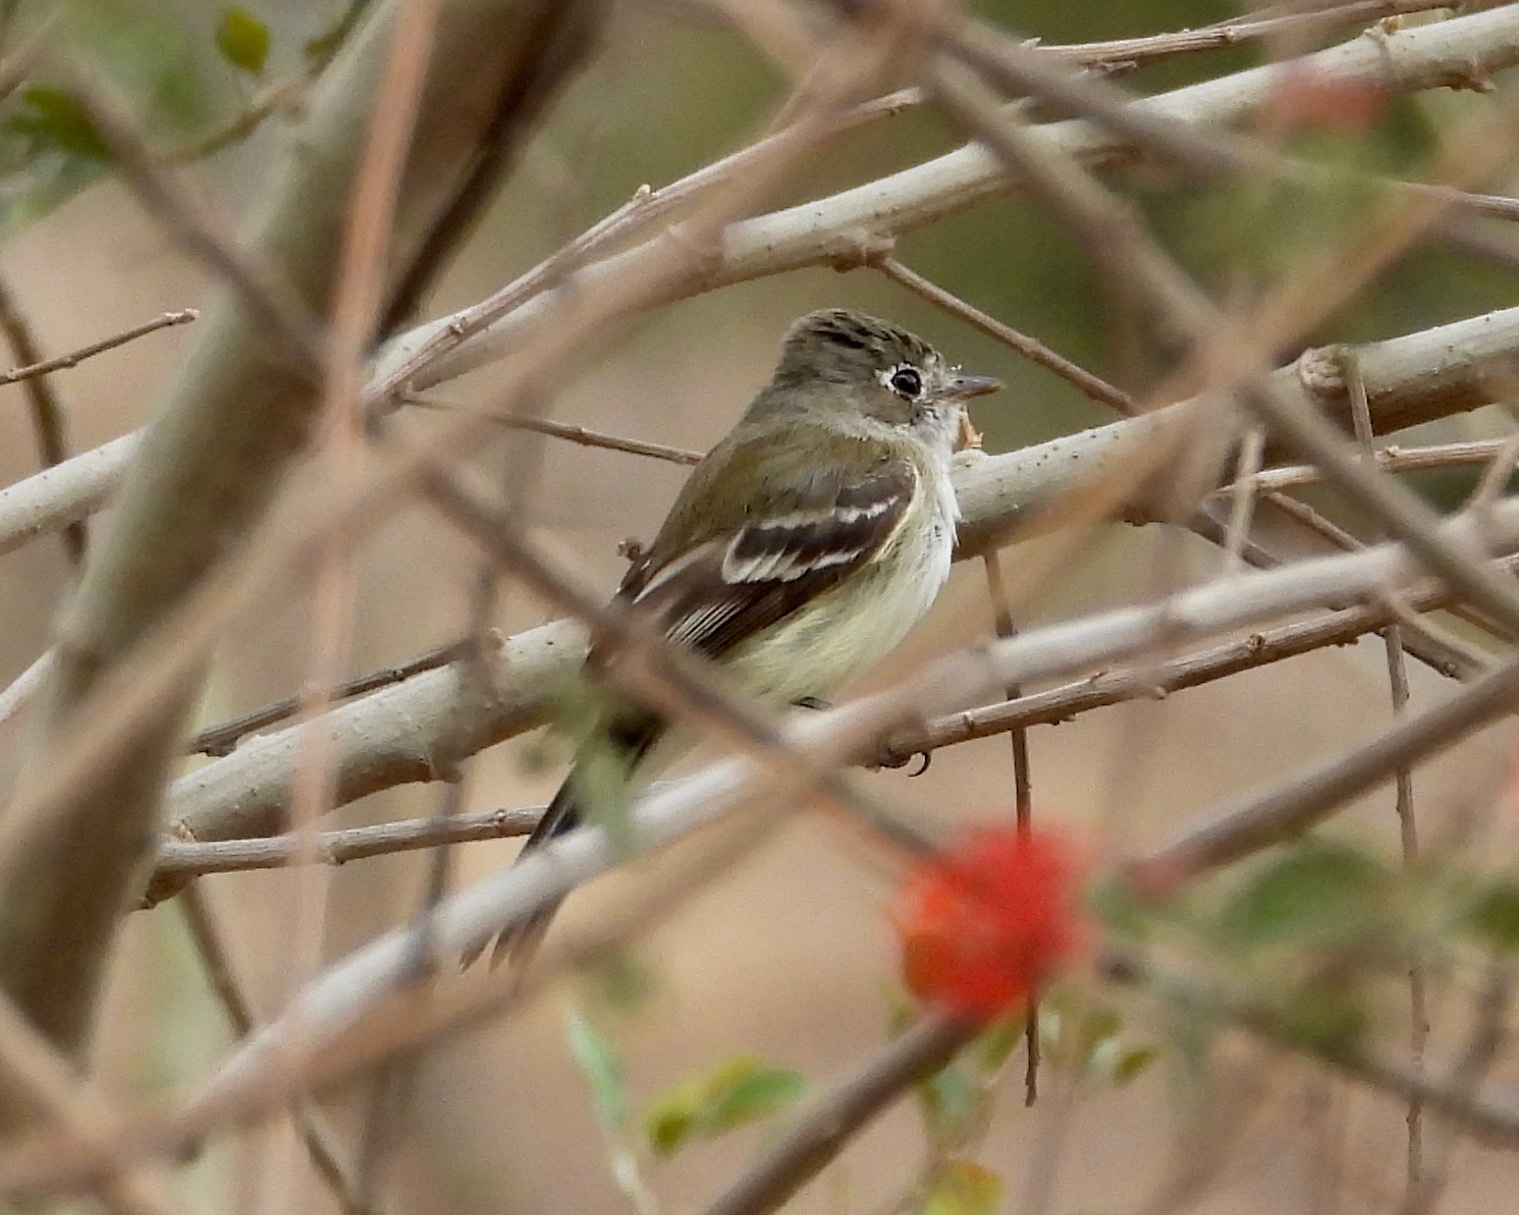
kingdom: Animalia
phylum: Chordata
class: Aves
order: Passeriformes
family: Tyrannidae
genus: Empidonax
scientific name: Empidonax minimus
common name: Least flycatcher
